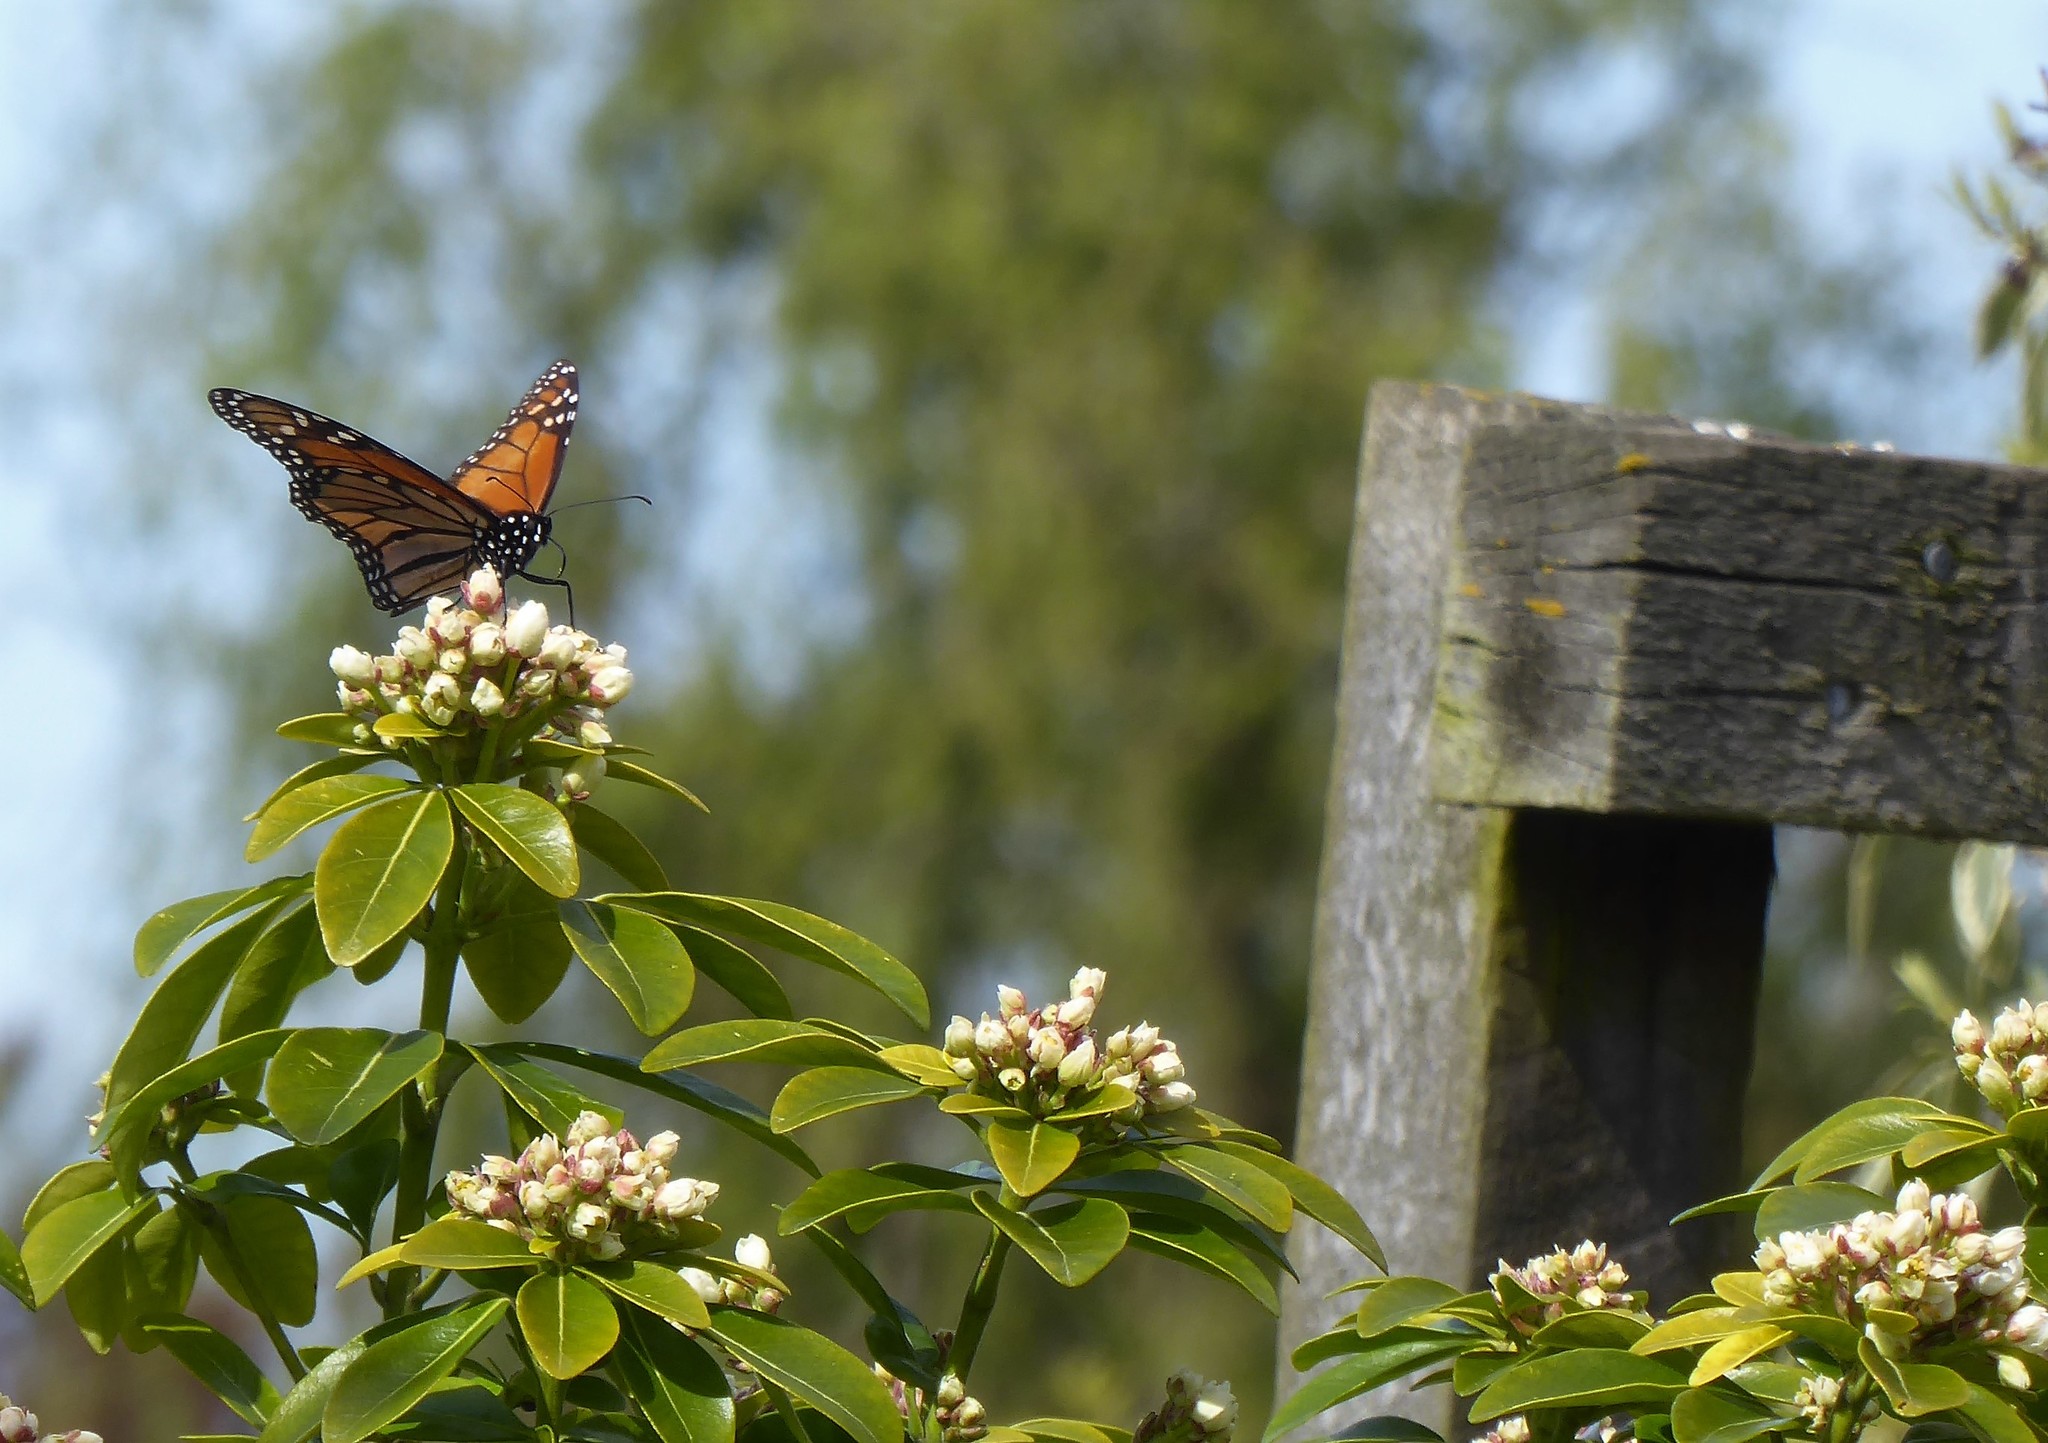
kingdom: Animalia
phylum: Arthropoda
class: Insecta
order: Lepidoptera
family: Nymphalidae
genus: Danaus
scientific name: Danaus plexippus
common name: Monarch
